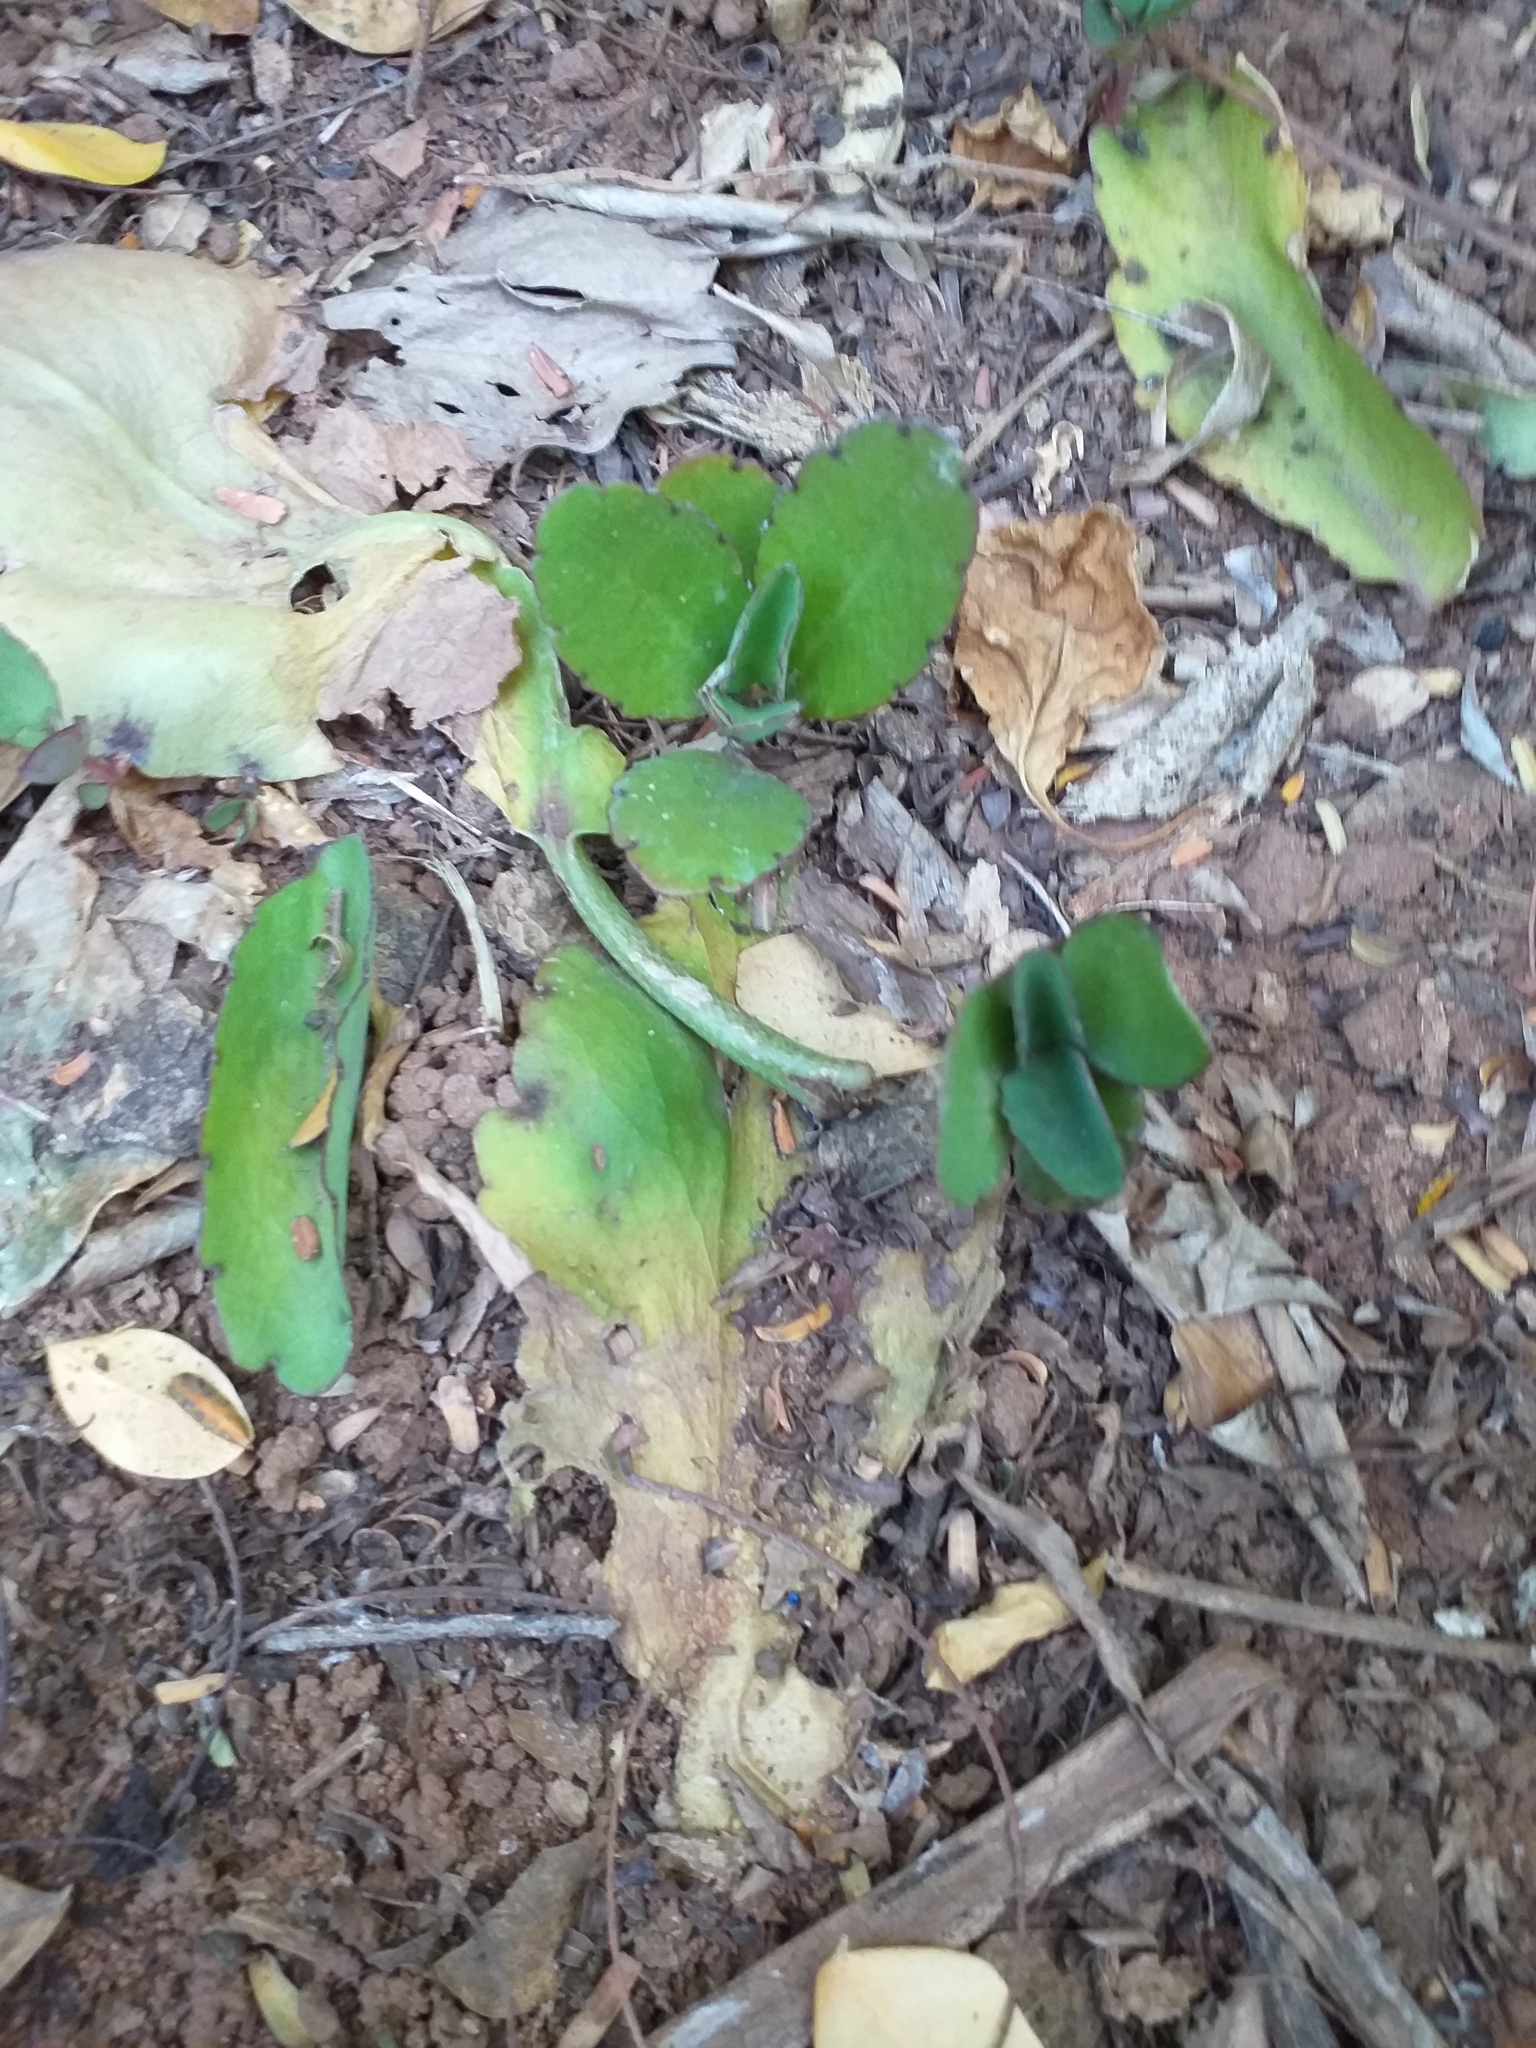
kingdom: Plantae
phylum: Tracheophyta
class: Magnoliopsida
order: Saxifragales
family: Crassulaceae
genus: Kalanchoe
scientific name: Kalanchoe pinnata
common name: Cathedral bells
